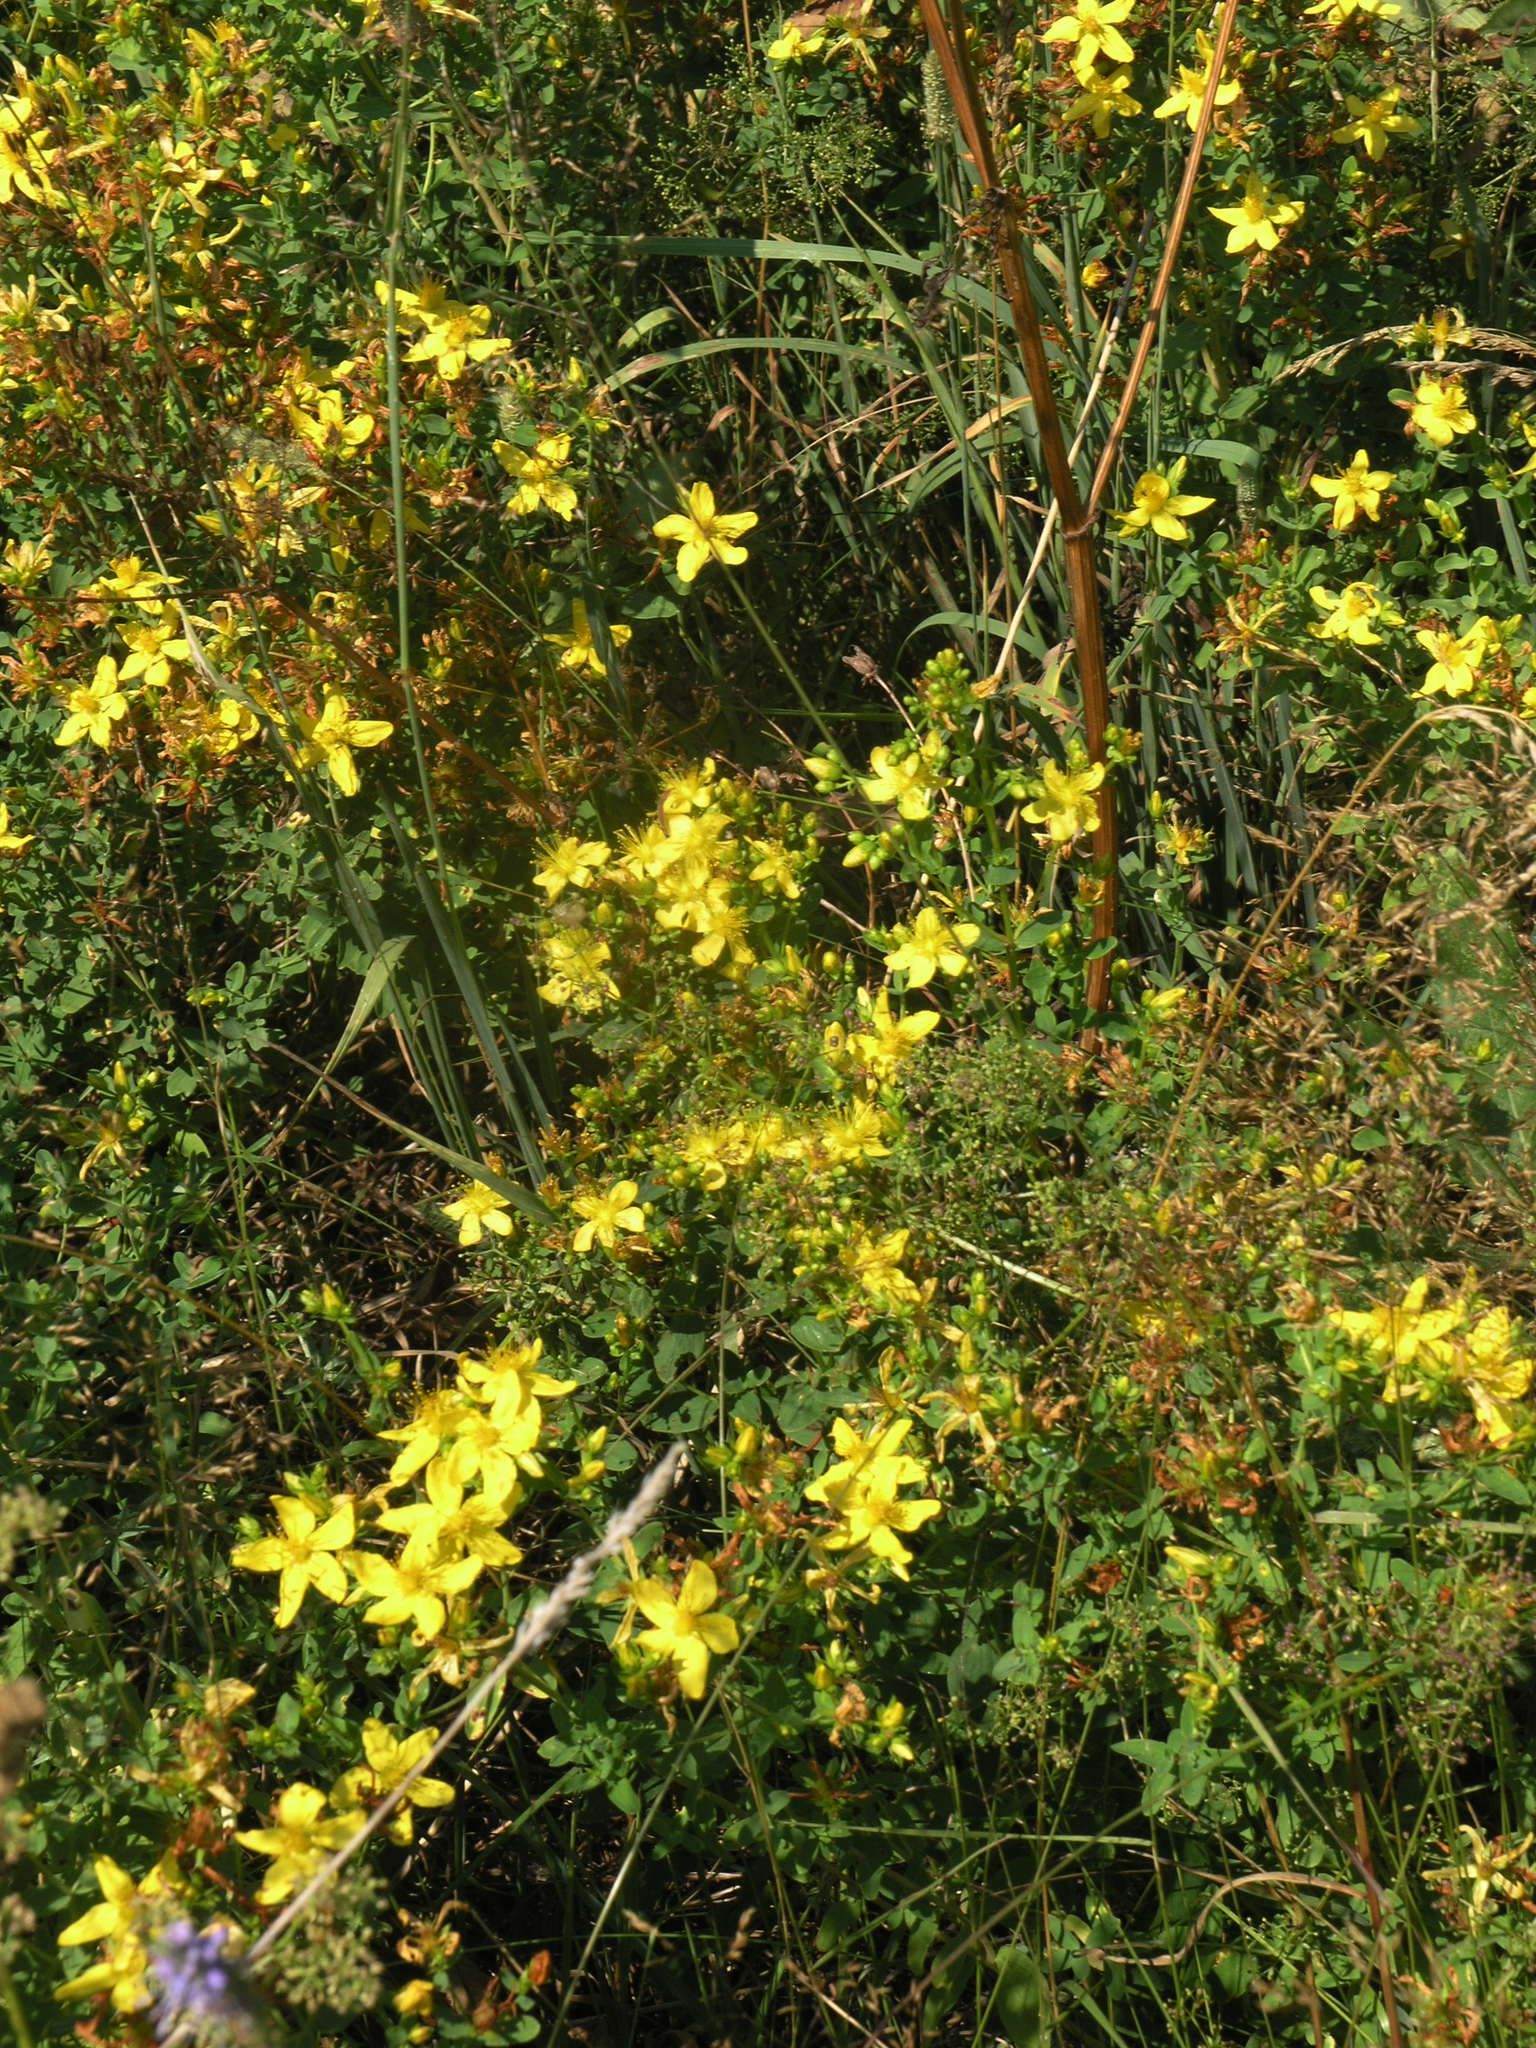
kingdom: Plantae
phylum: Tracheophyta
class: Magnoliopsida
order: Malpighiales
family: Hypericaceae
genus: Hypericum
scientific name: Hypericum perforatum
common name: Common st. johnswort
